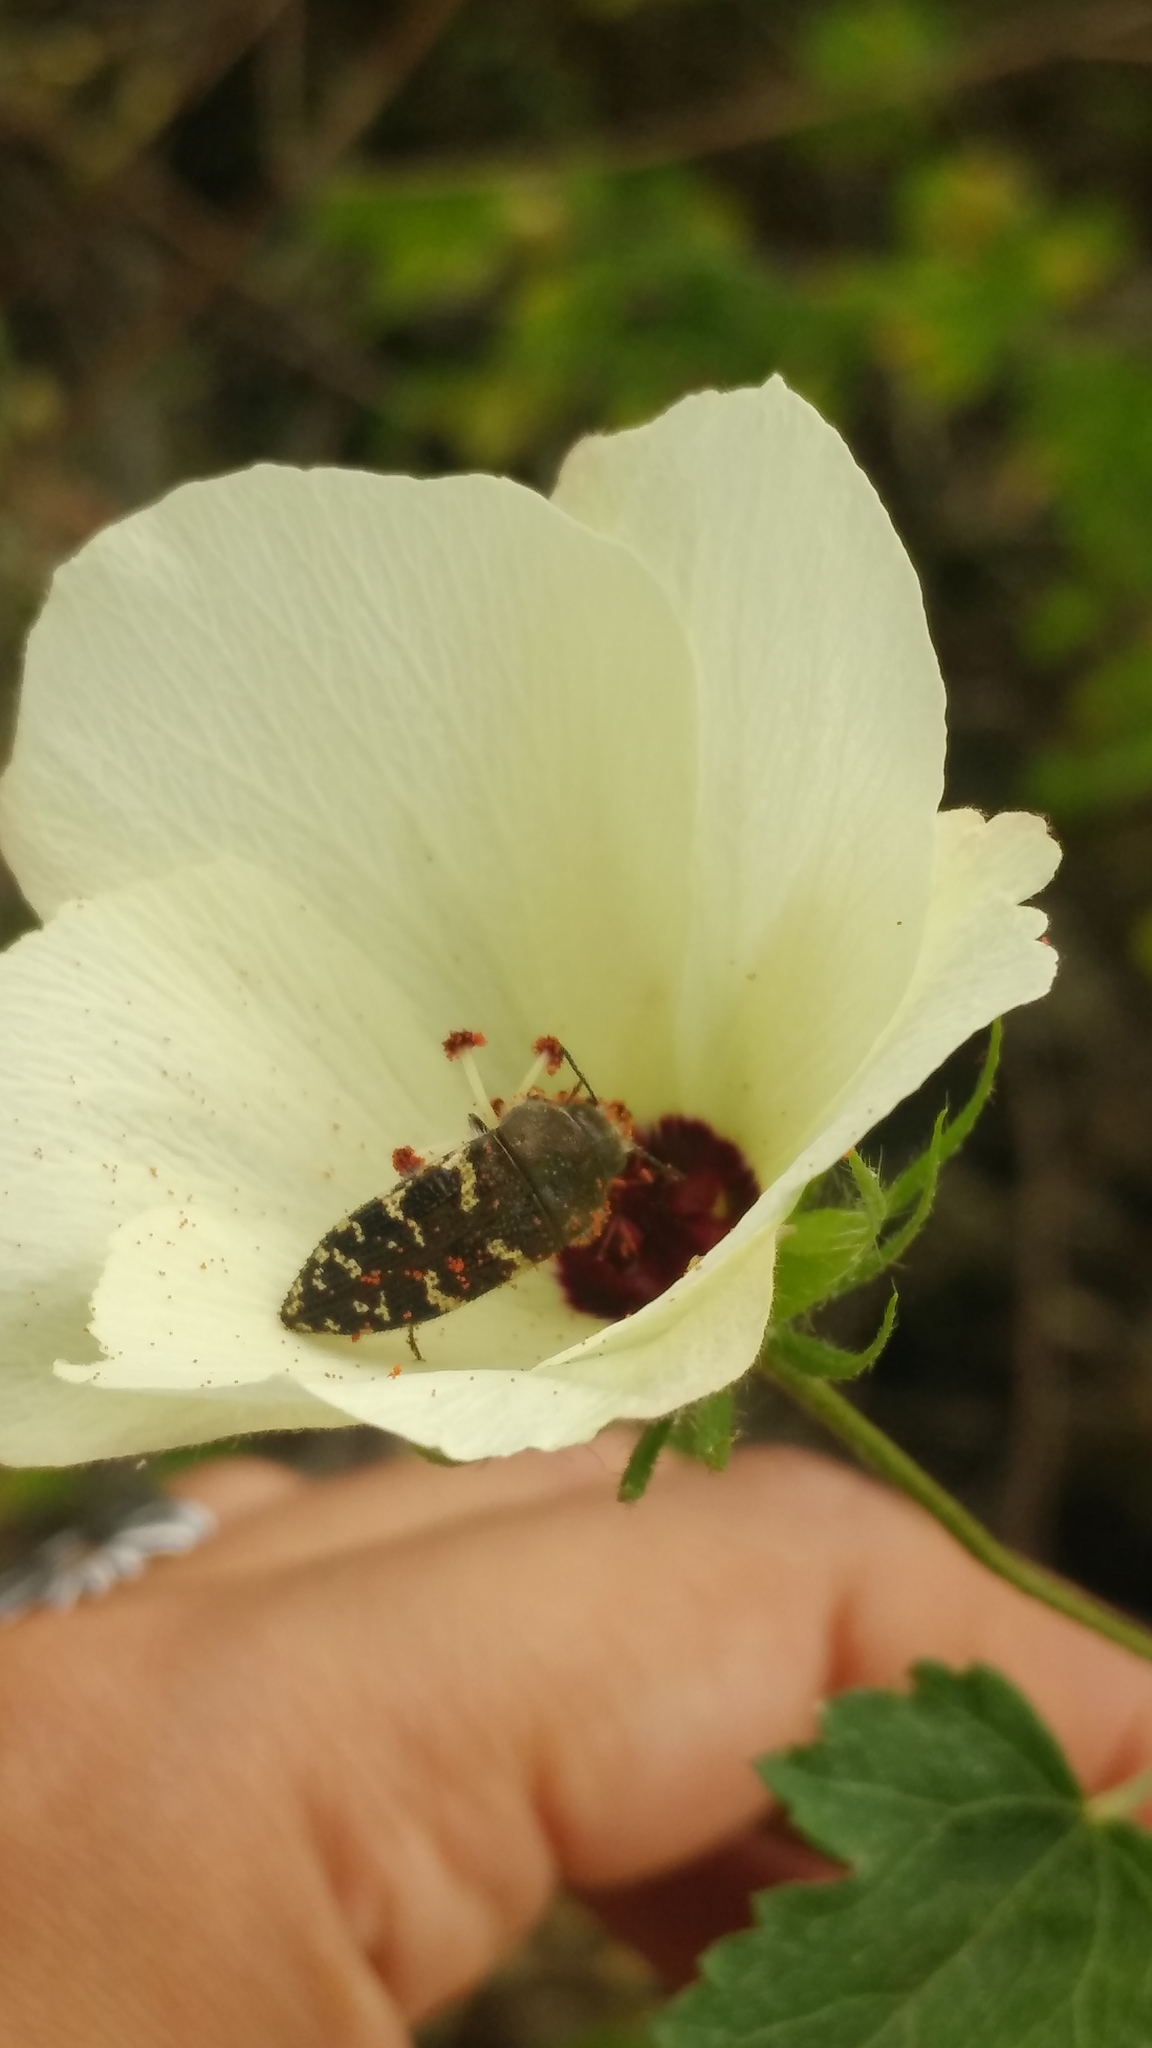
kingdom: Animalia
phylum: Arthropoda
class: Insecta
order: Coleoptera
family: Buprestidae
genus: Acmaeodera
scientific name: Acmaeodera mixta
